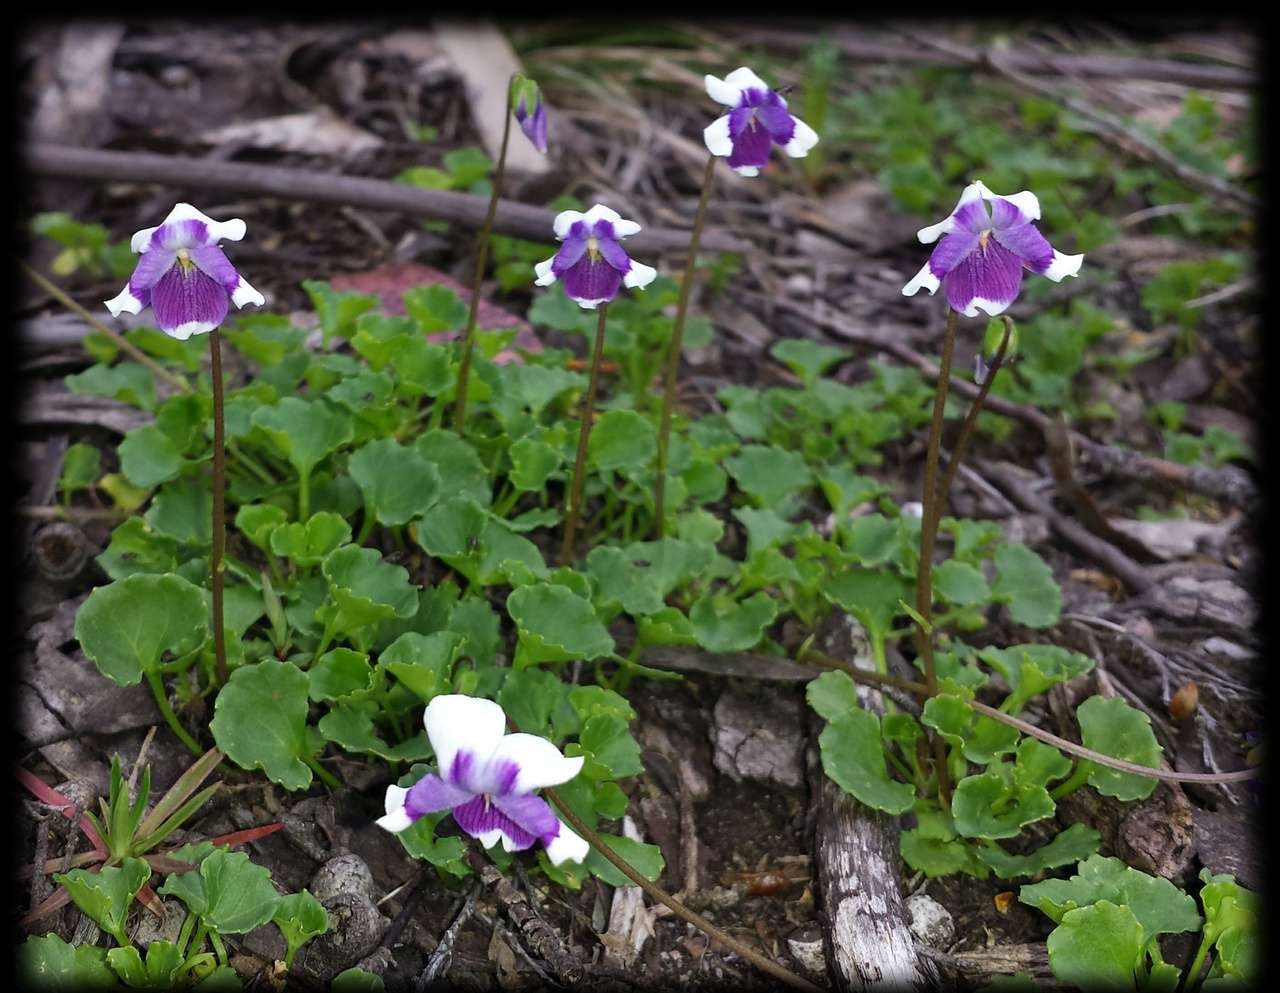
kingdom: Plantae
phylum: Tracheophyta
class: Magnoliopsida
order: Malpighiales
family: Violaceae
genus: Viola
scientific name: Viola eminens
